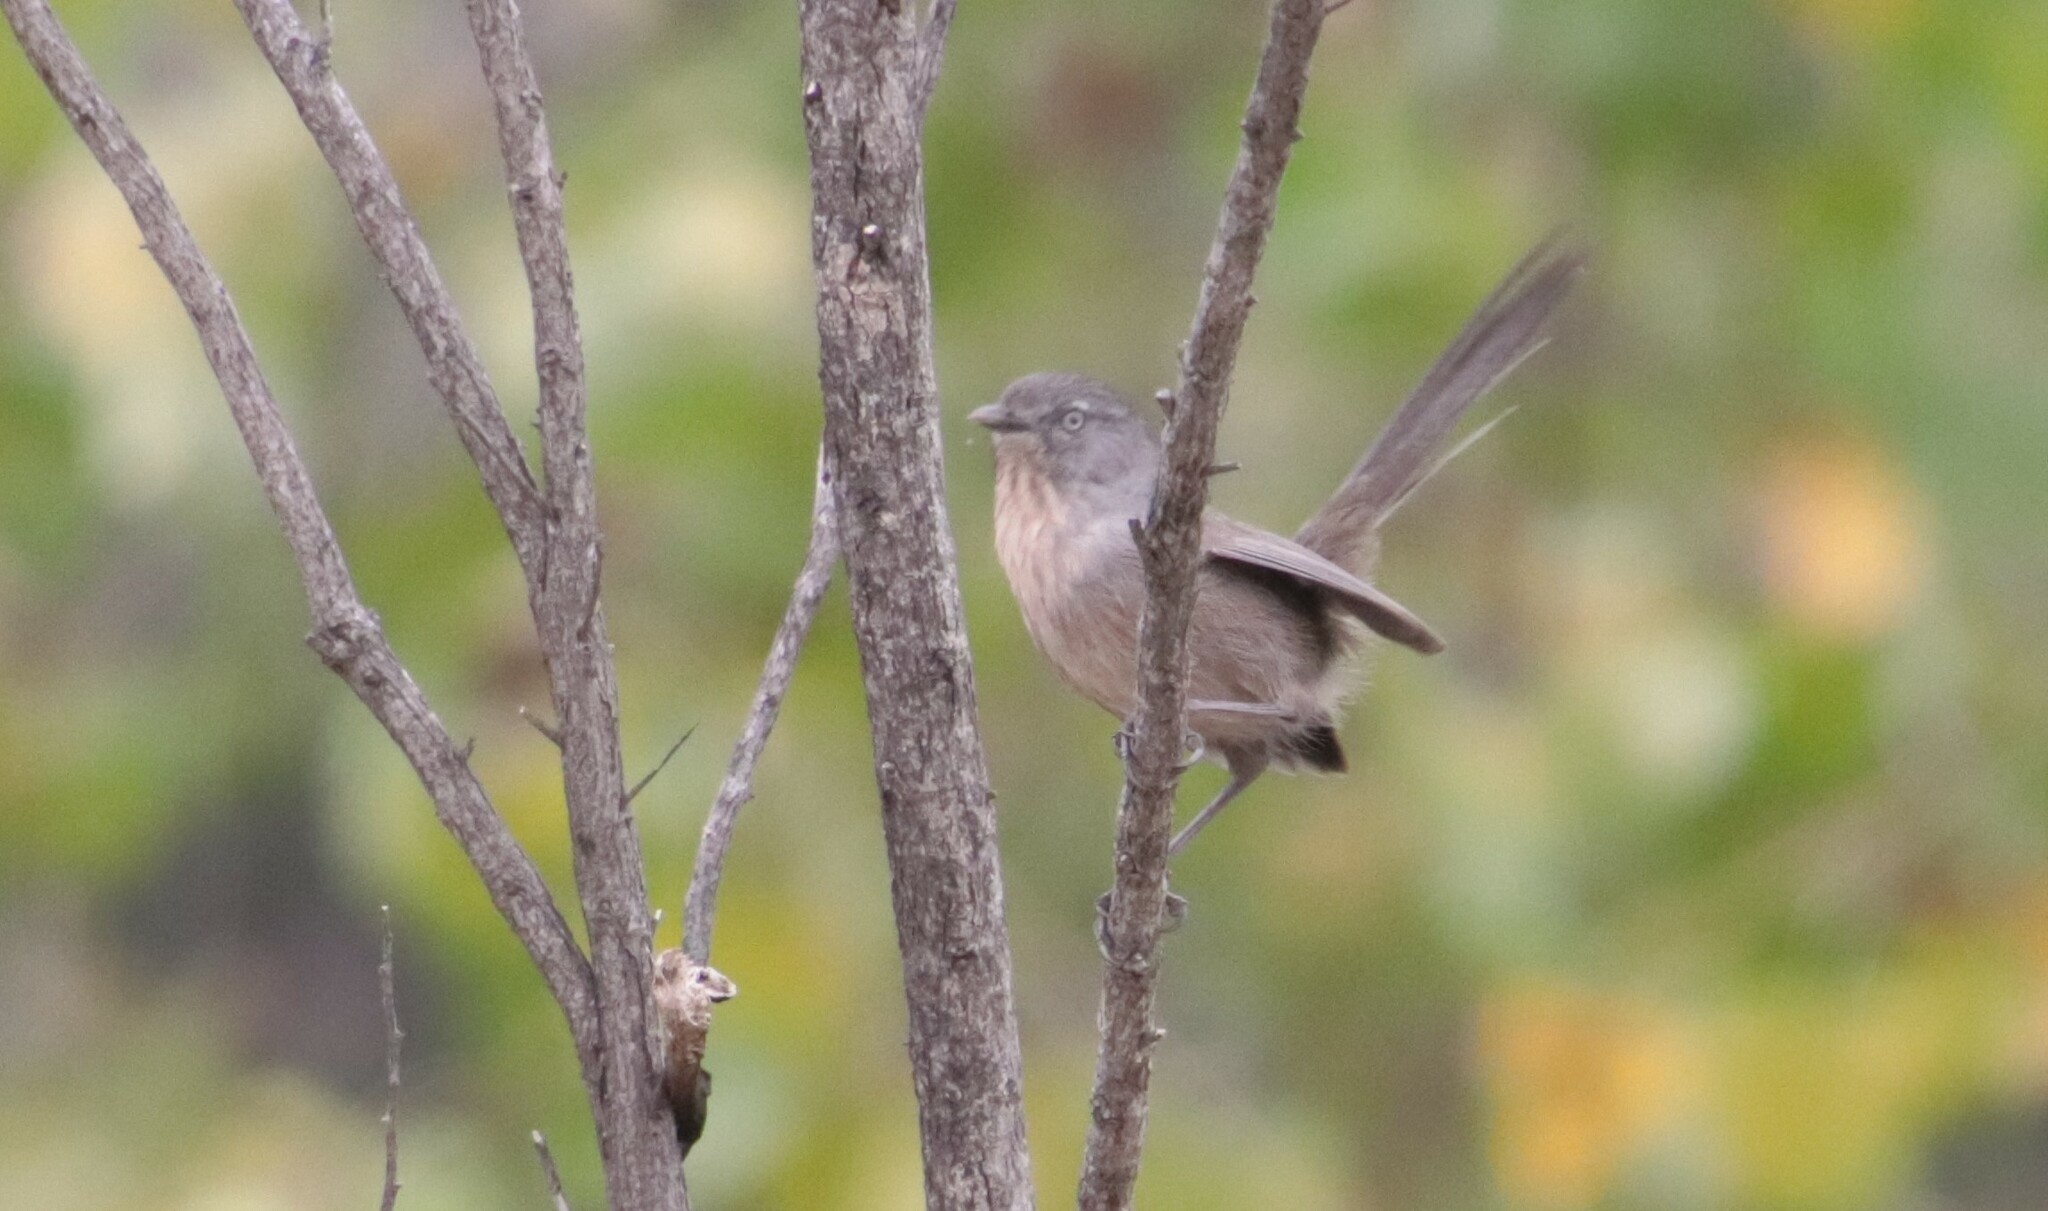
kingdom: Animalia
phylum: Chordata
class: Aves
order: Passeriformes
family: Sylviidae
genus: Chamaea
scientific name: Chamaea fasciata
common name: Wrentit
